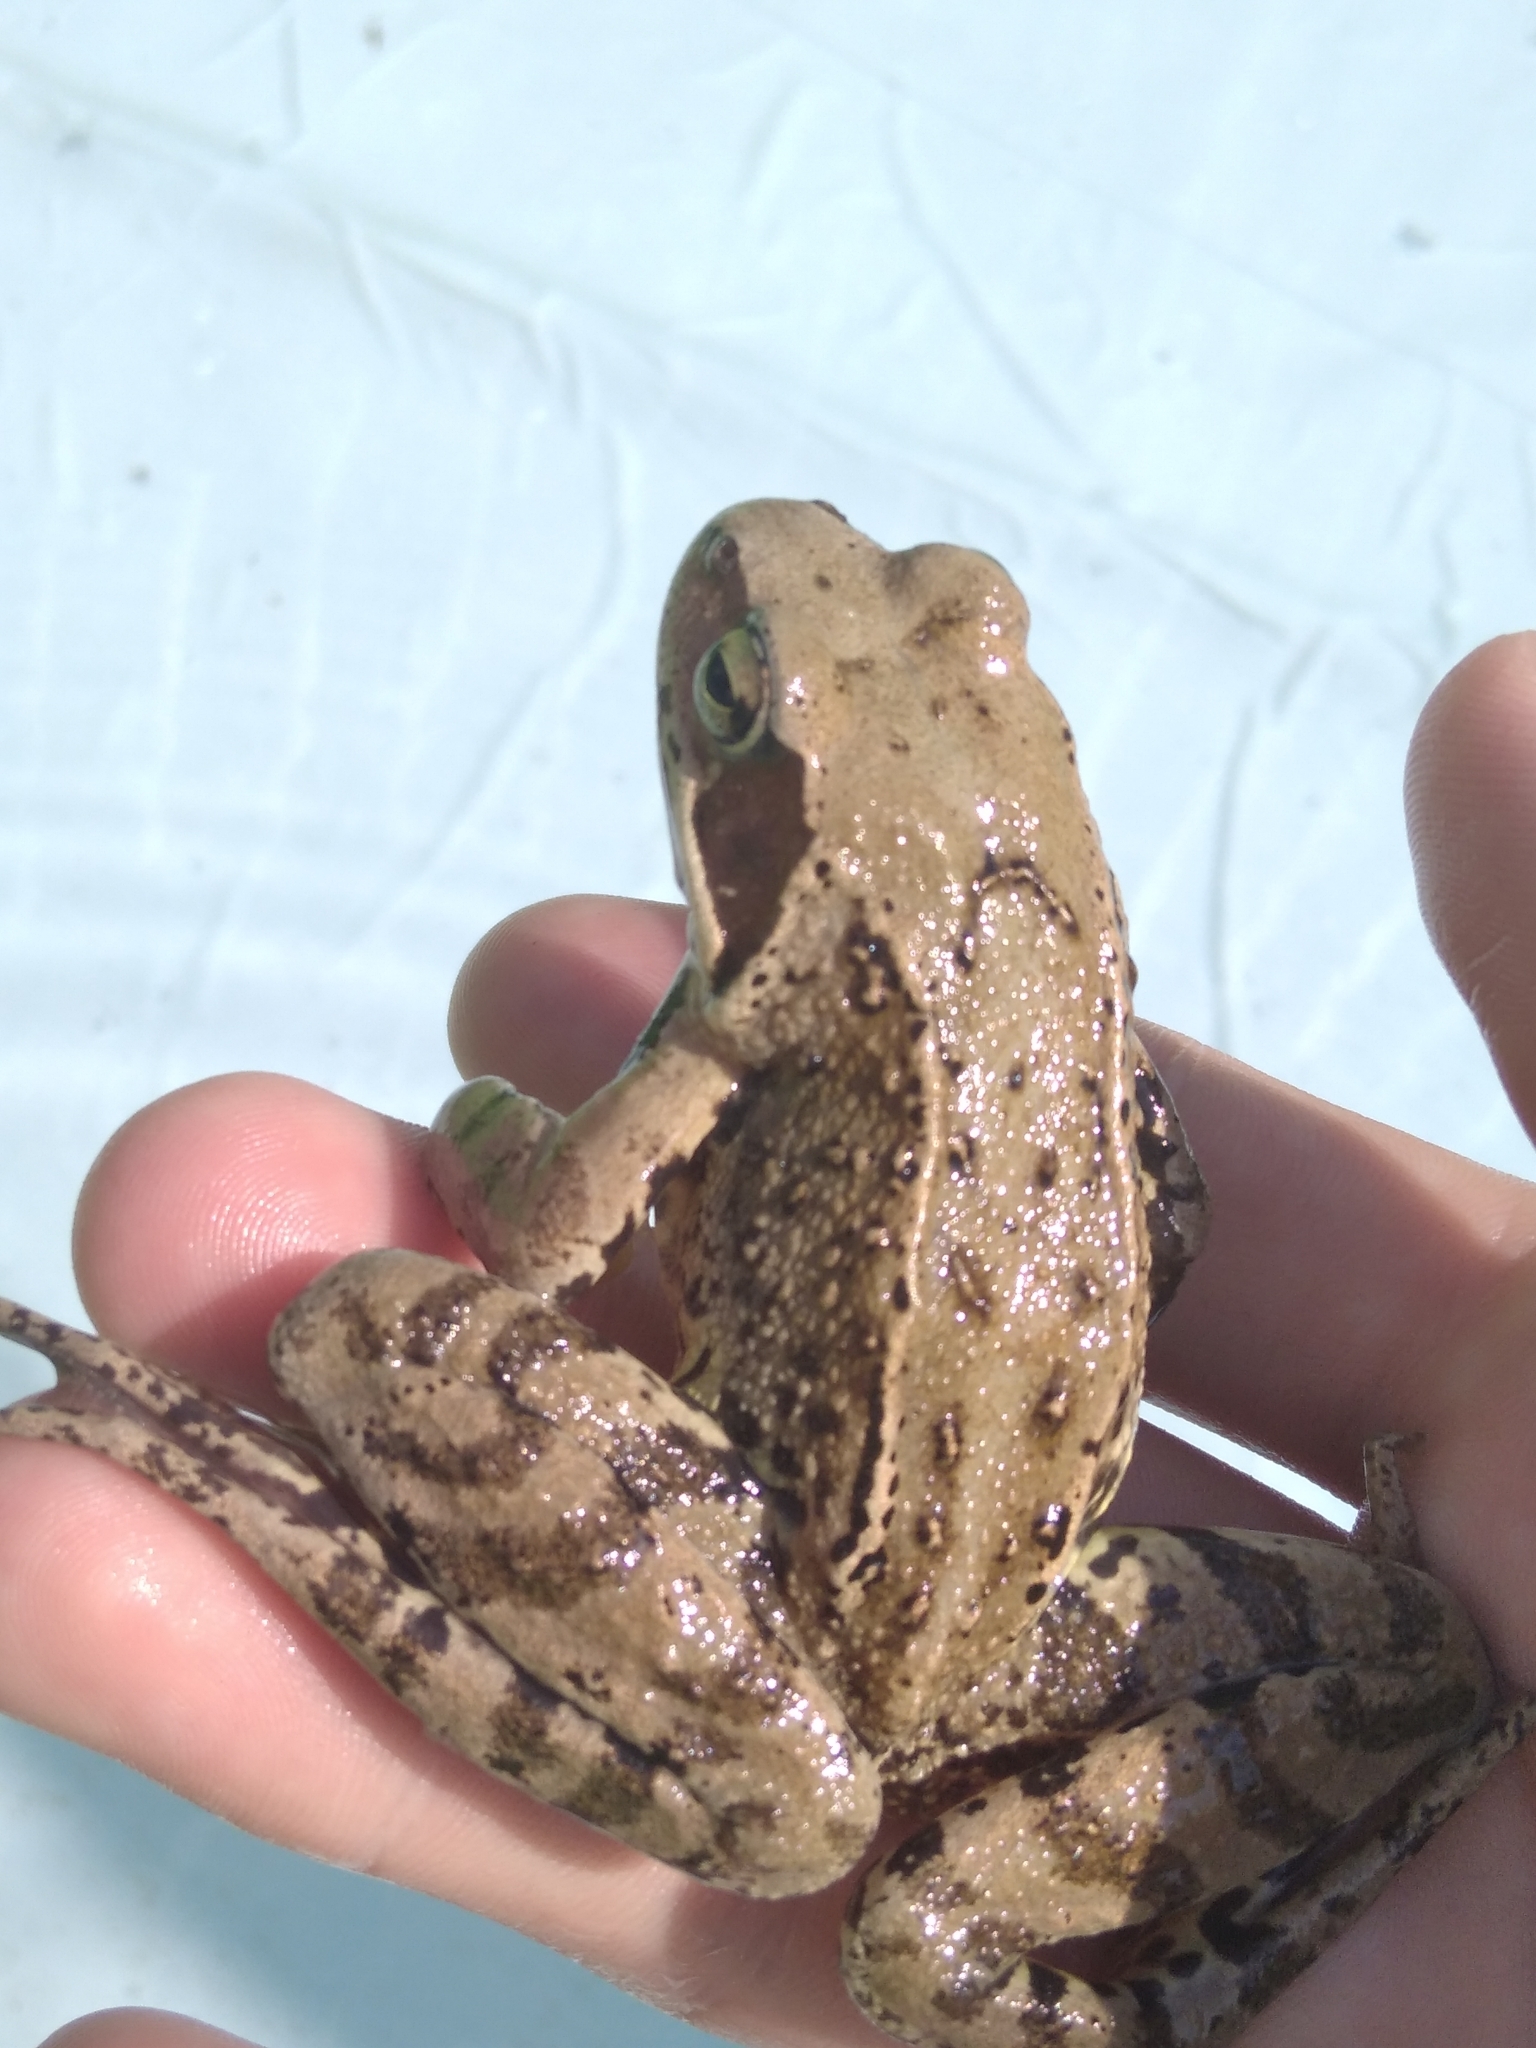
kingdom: Animalia
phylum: Chordata
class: Amphibia
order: Anura
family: Ranidae
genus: Rana
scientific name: Rana temporaria
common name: Common frog
